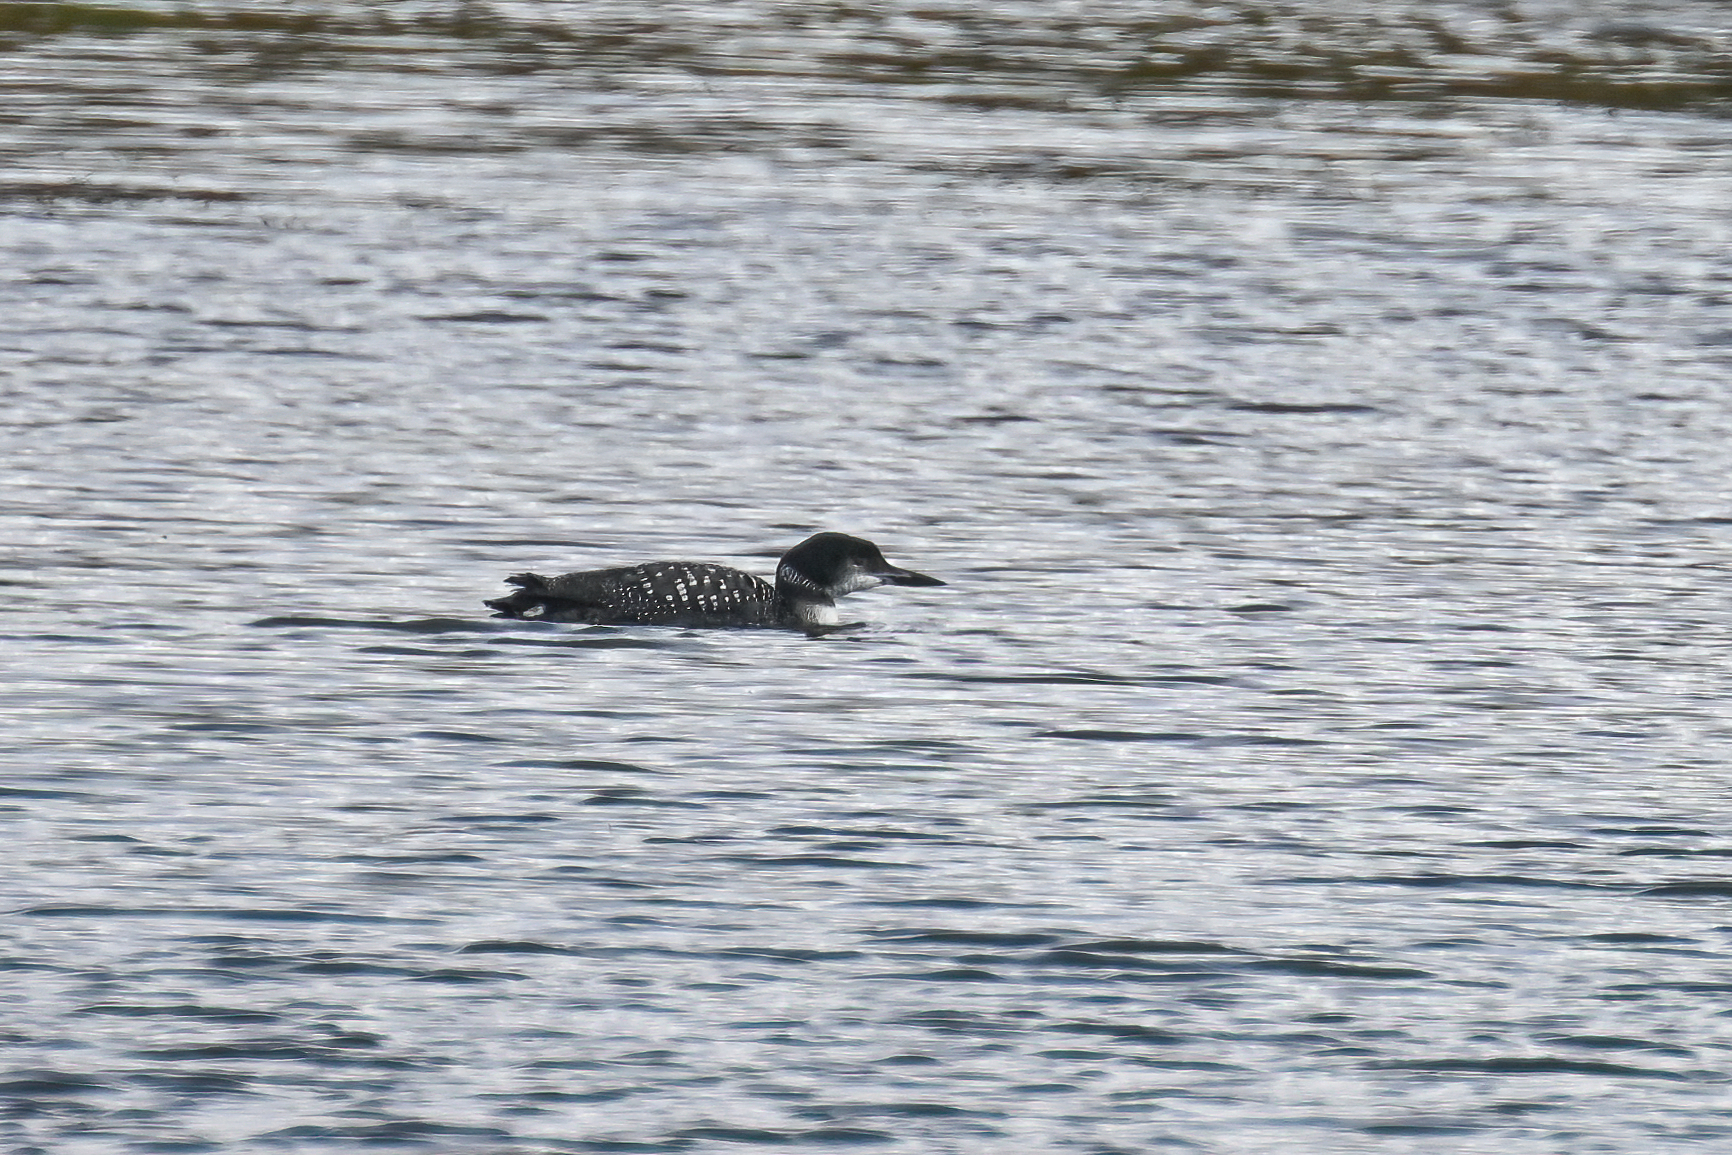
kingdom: Animalia
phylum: Chordata
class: Aves
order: Gaviiformes
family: Gaviidae
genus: Gavia
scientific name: Gavia immer
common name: Common loon
